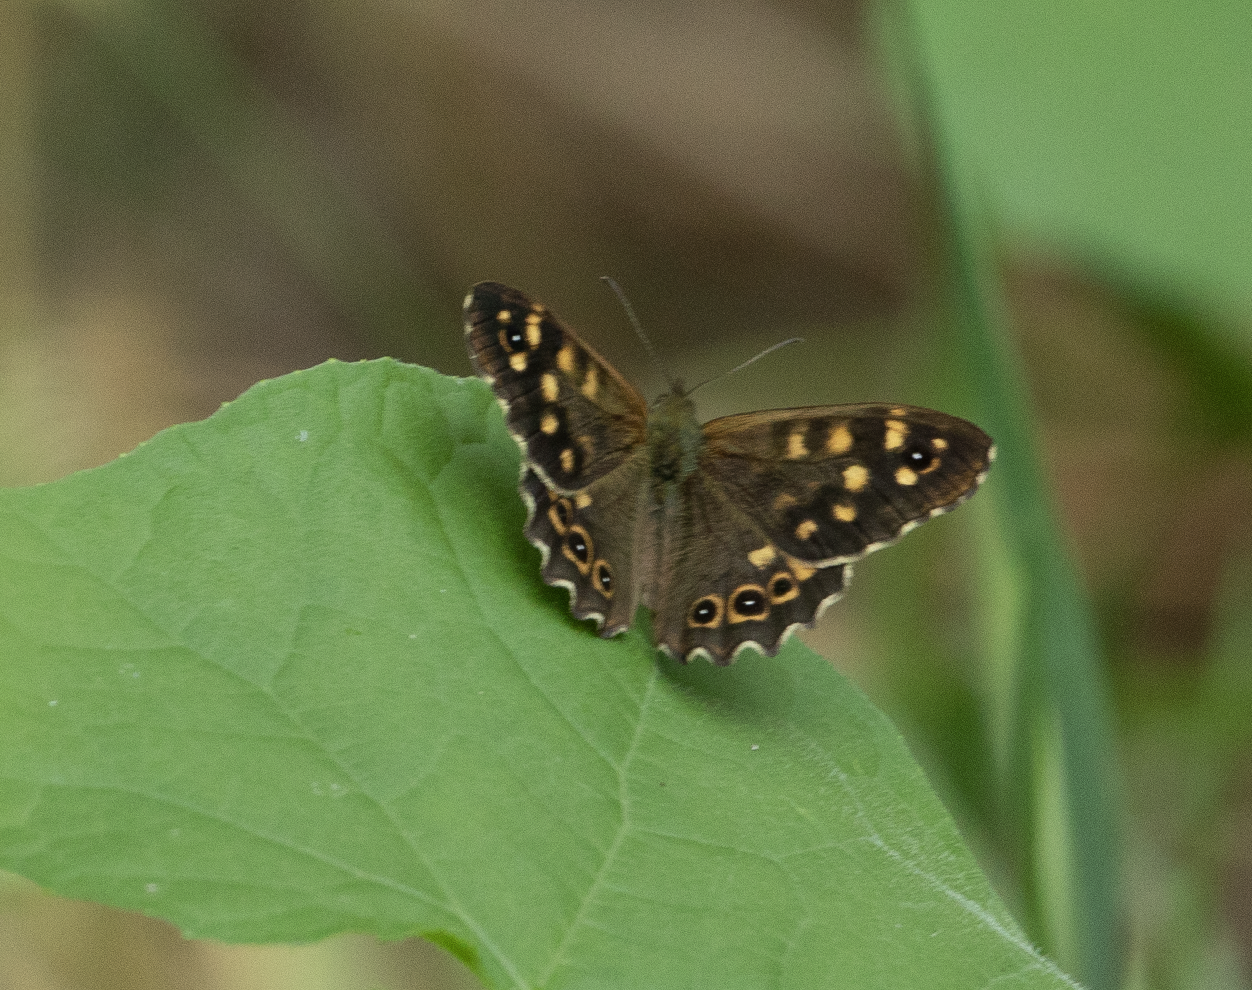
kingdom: Animalia
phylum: Arthropoda
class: Insecta
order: Lepidoptera
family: Nymphalidae
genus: Pararge
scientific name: Pararge aegeria
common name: Speckled wood
